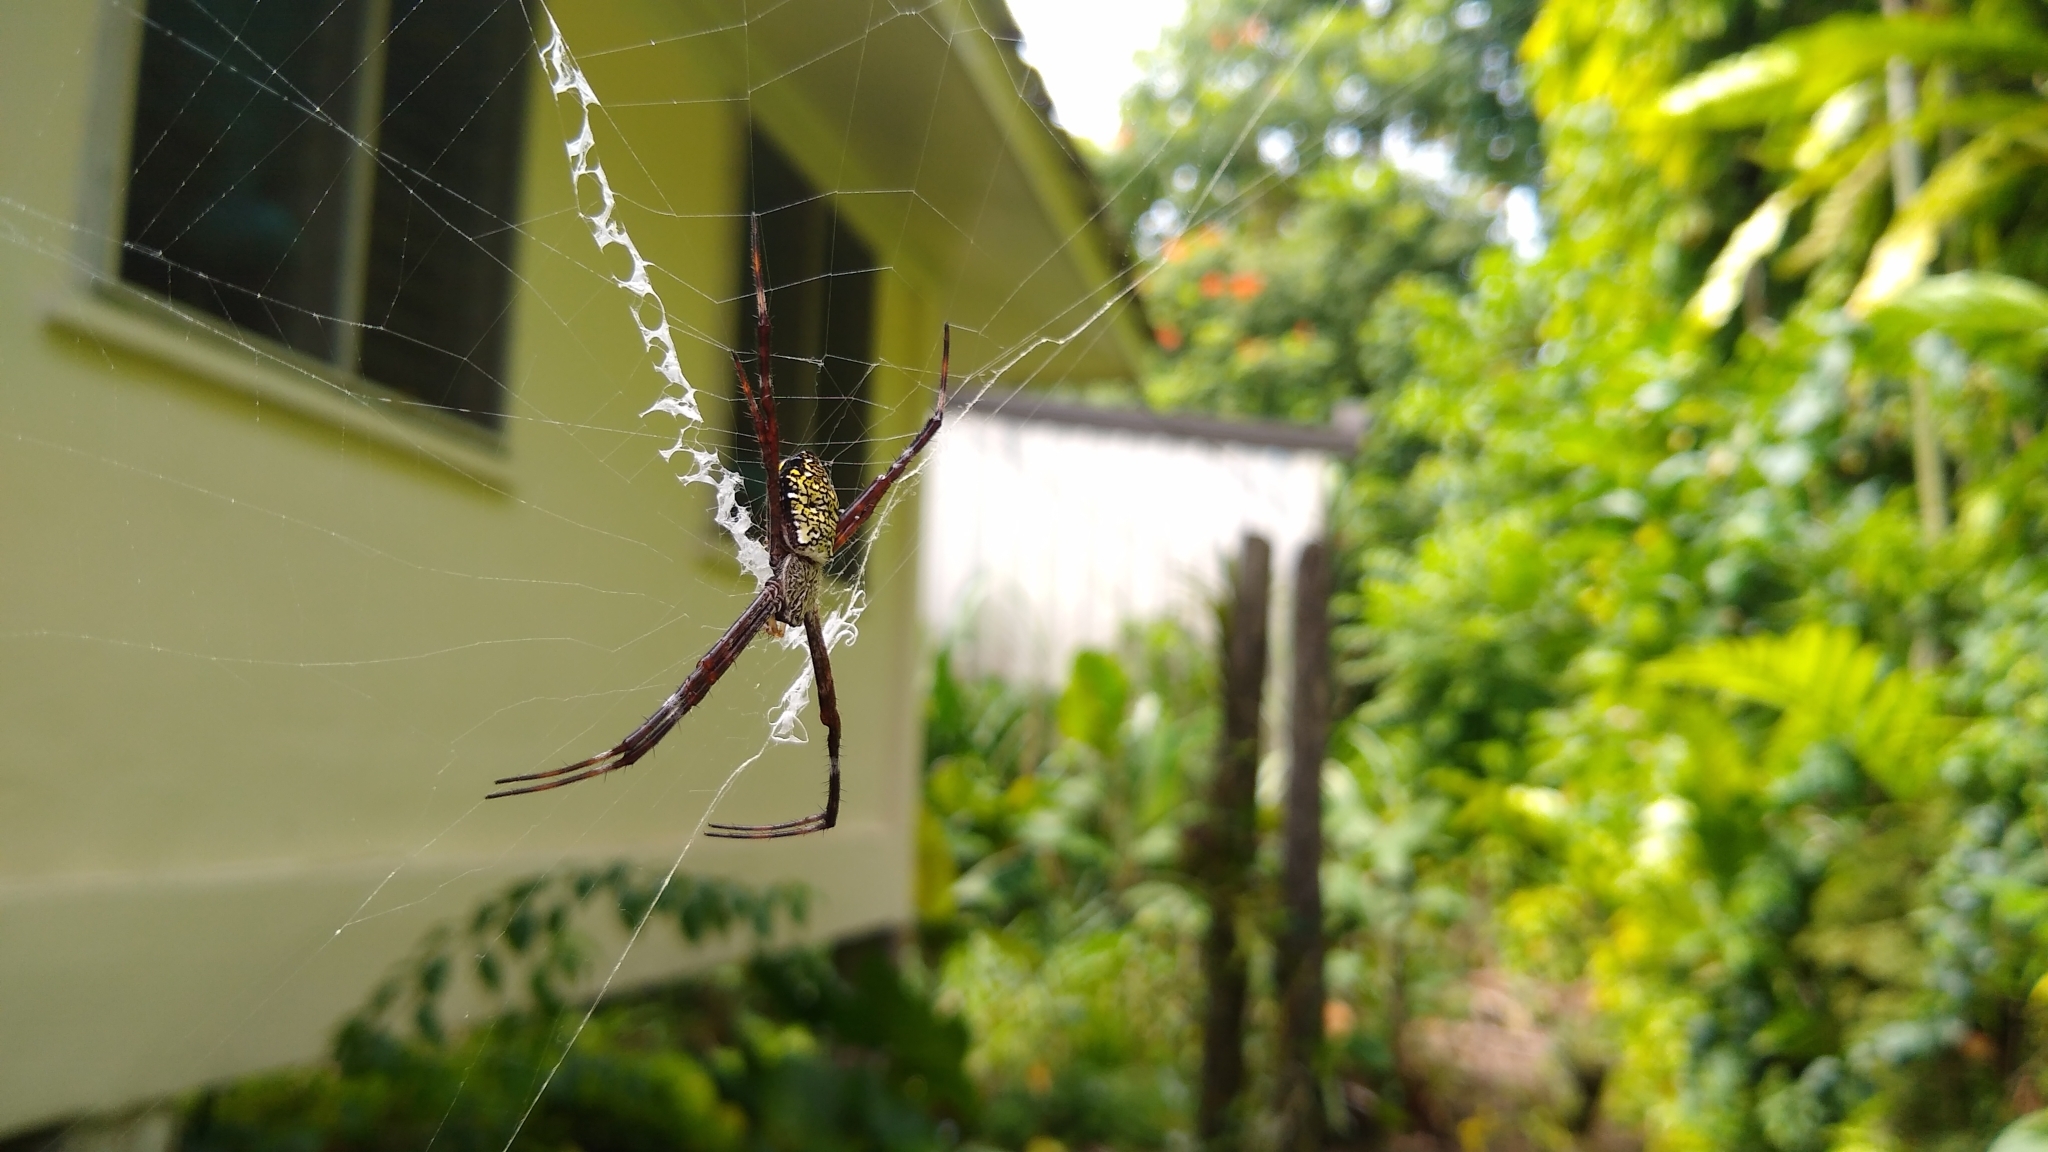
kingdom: Animalia
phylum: Arthropoda
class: Arachnida
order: Araneae
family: Araneidae
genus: Argiope
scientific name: Argiope appensa
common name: Garden spider
